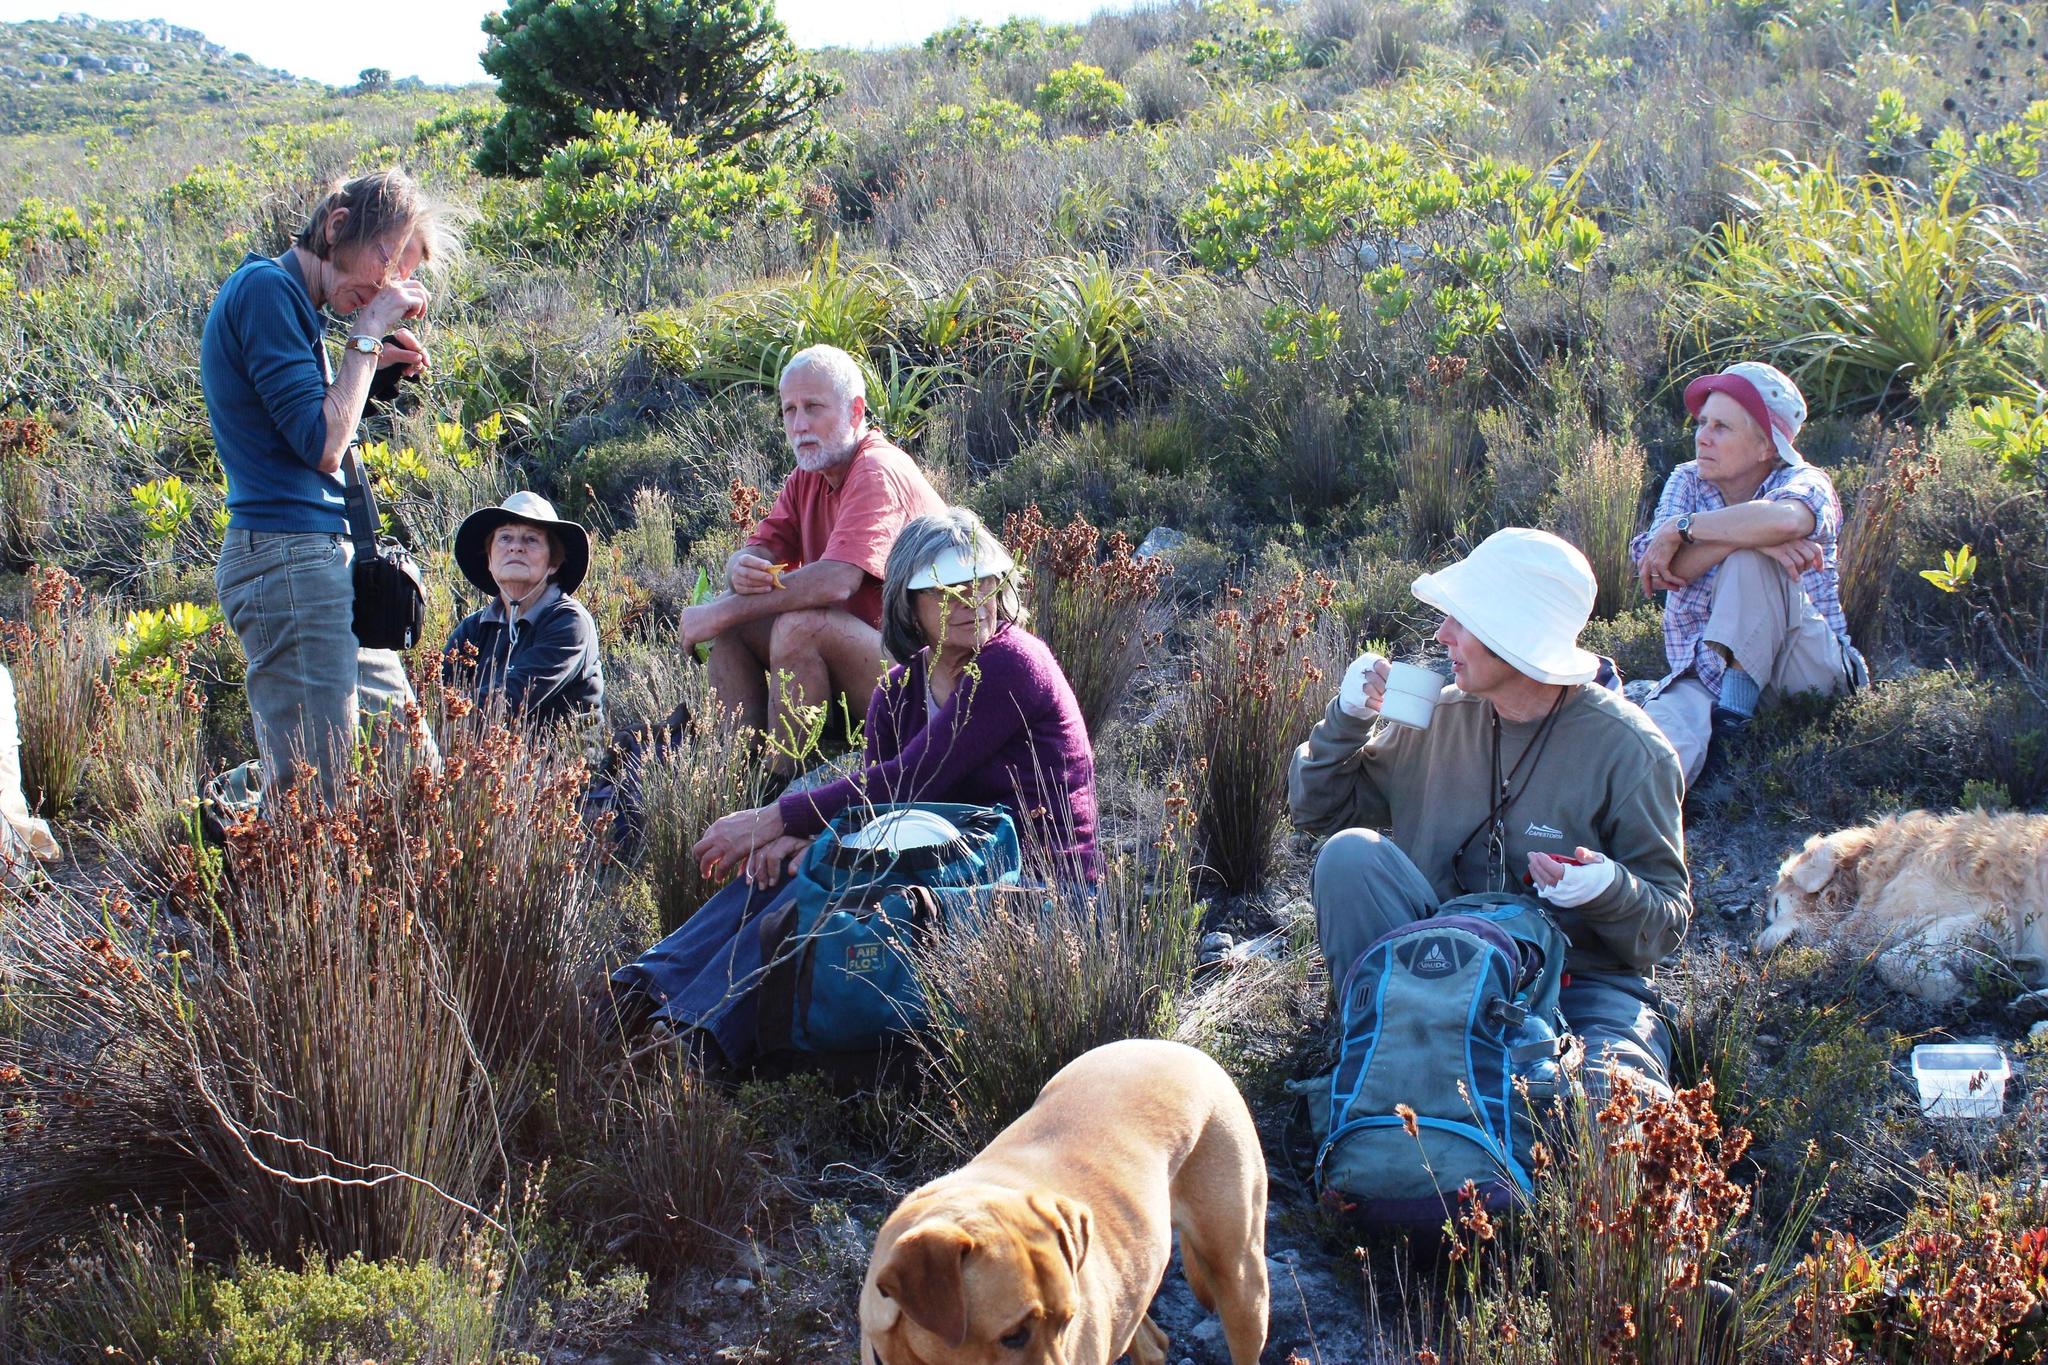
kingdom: Plantae
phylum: Tracheophyta
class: Magnoliopsida
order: Proteales
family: Proteaceae
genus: Aulax
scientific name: Aulax cancellata
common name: Channel-leaf featherbush
